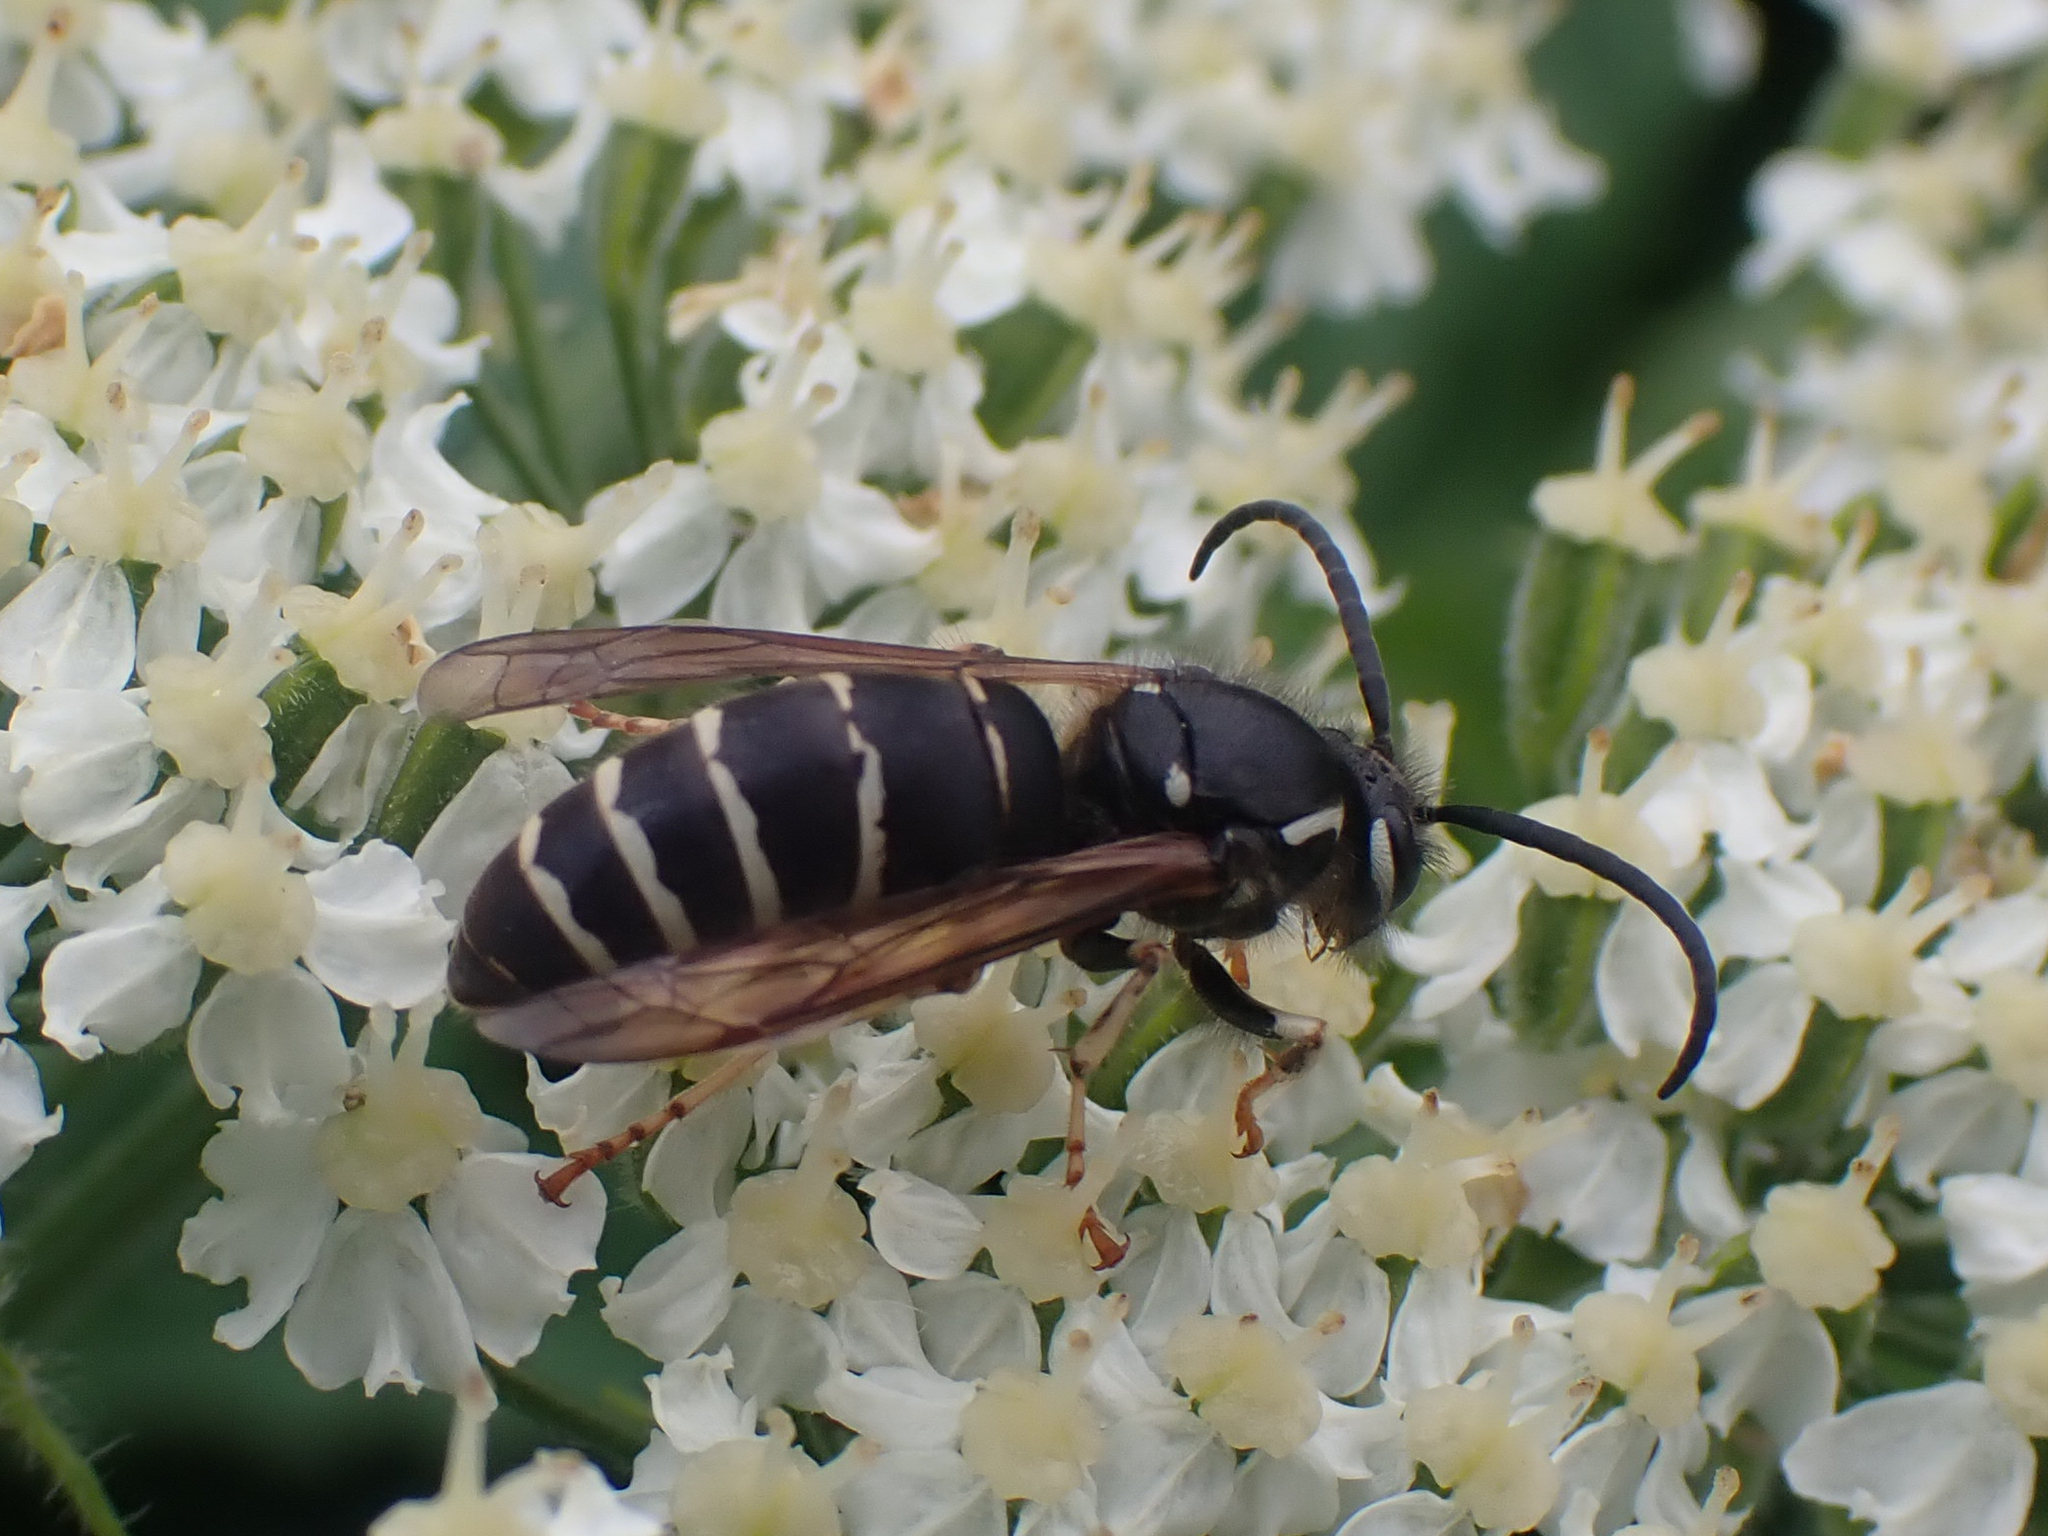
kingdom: Animalia
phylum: Arthropoda
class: Insecta
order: Hymenoptera
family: Vespidae
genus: Dolichovespula
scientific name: Dolichovespula adulterina
